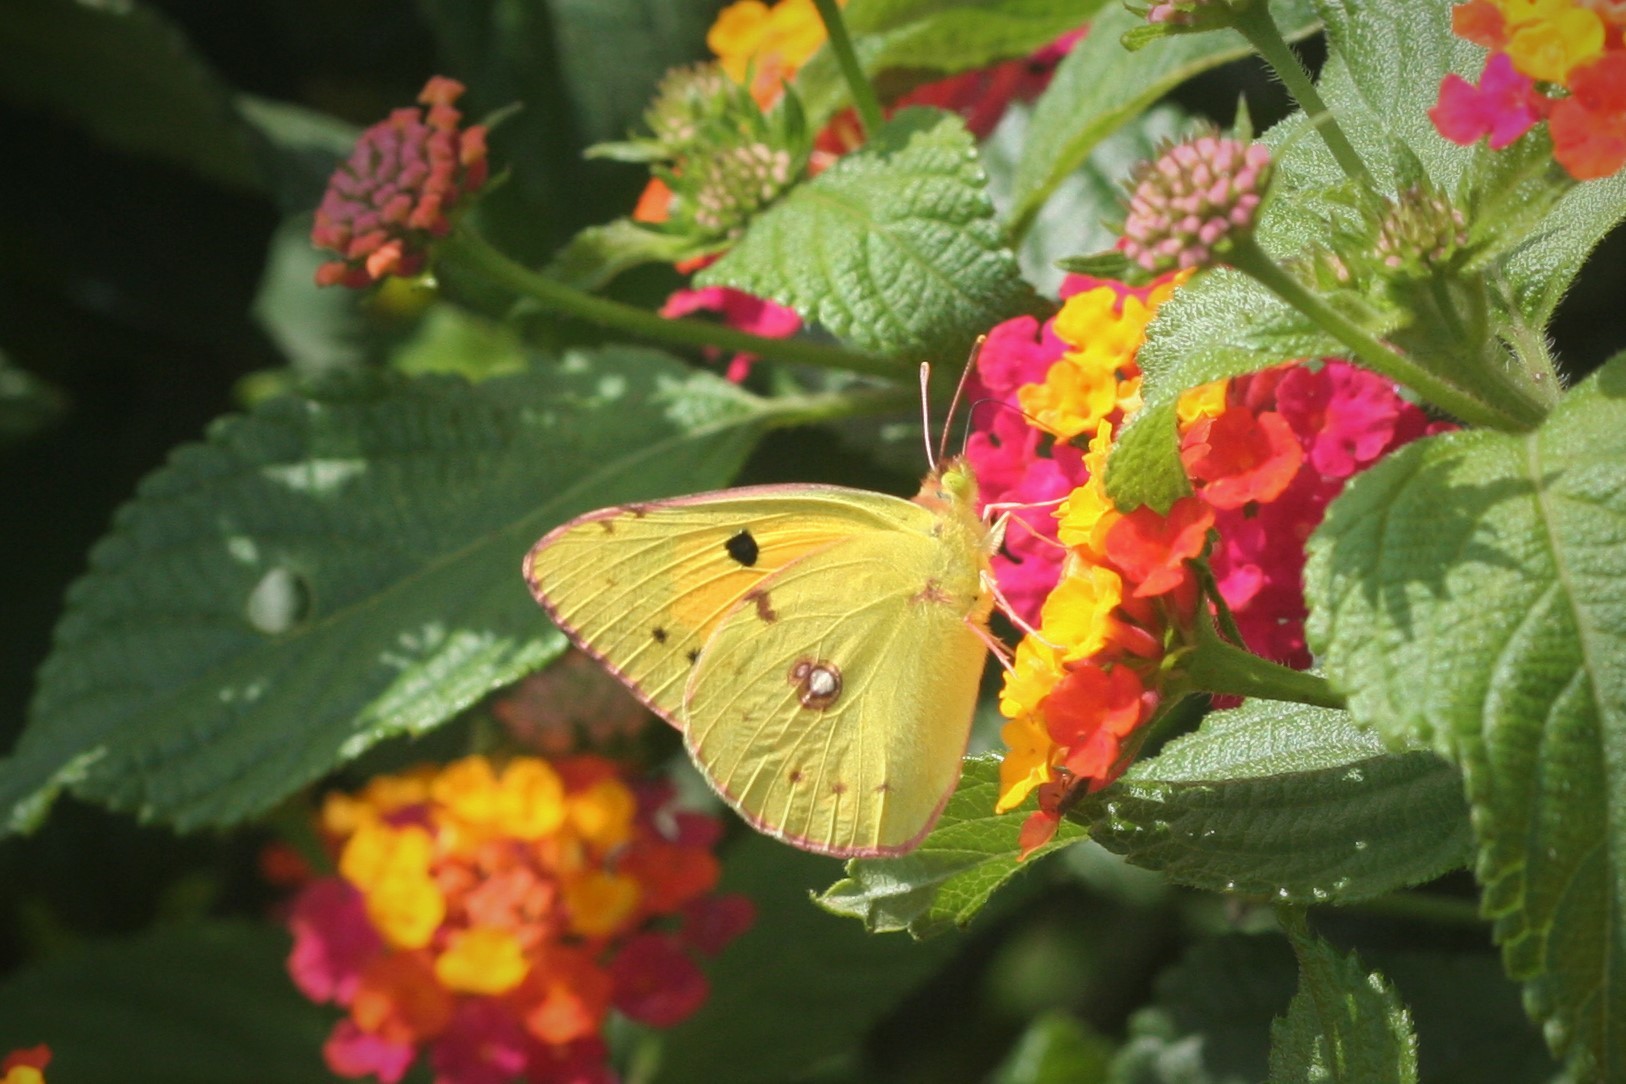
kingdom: Animalia
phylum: Arthropoda
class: Insecta
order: Lepidoptera
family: Pieridae
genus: Colias
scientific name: Colias croceus
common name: Clouded yellow
